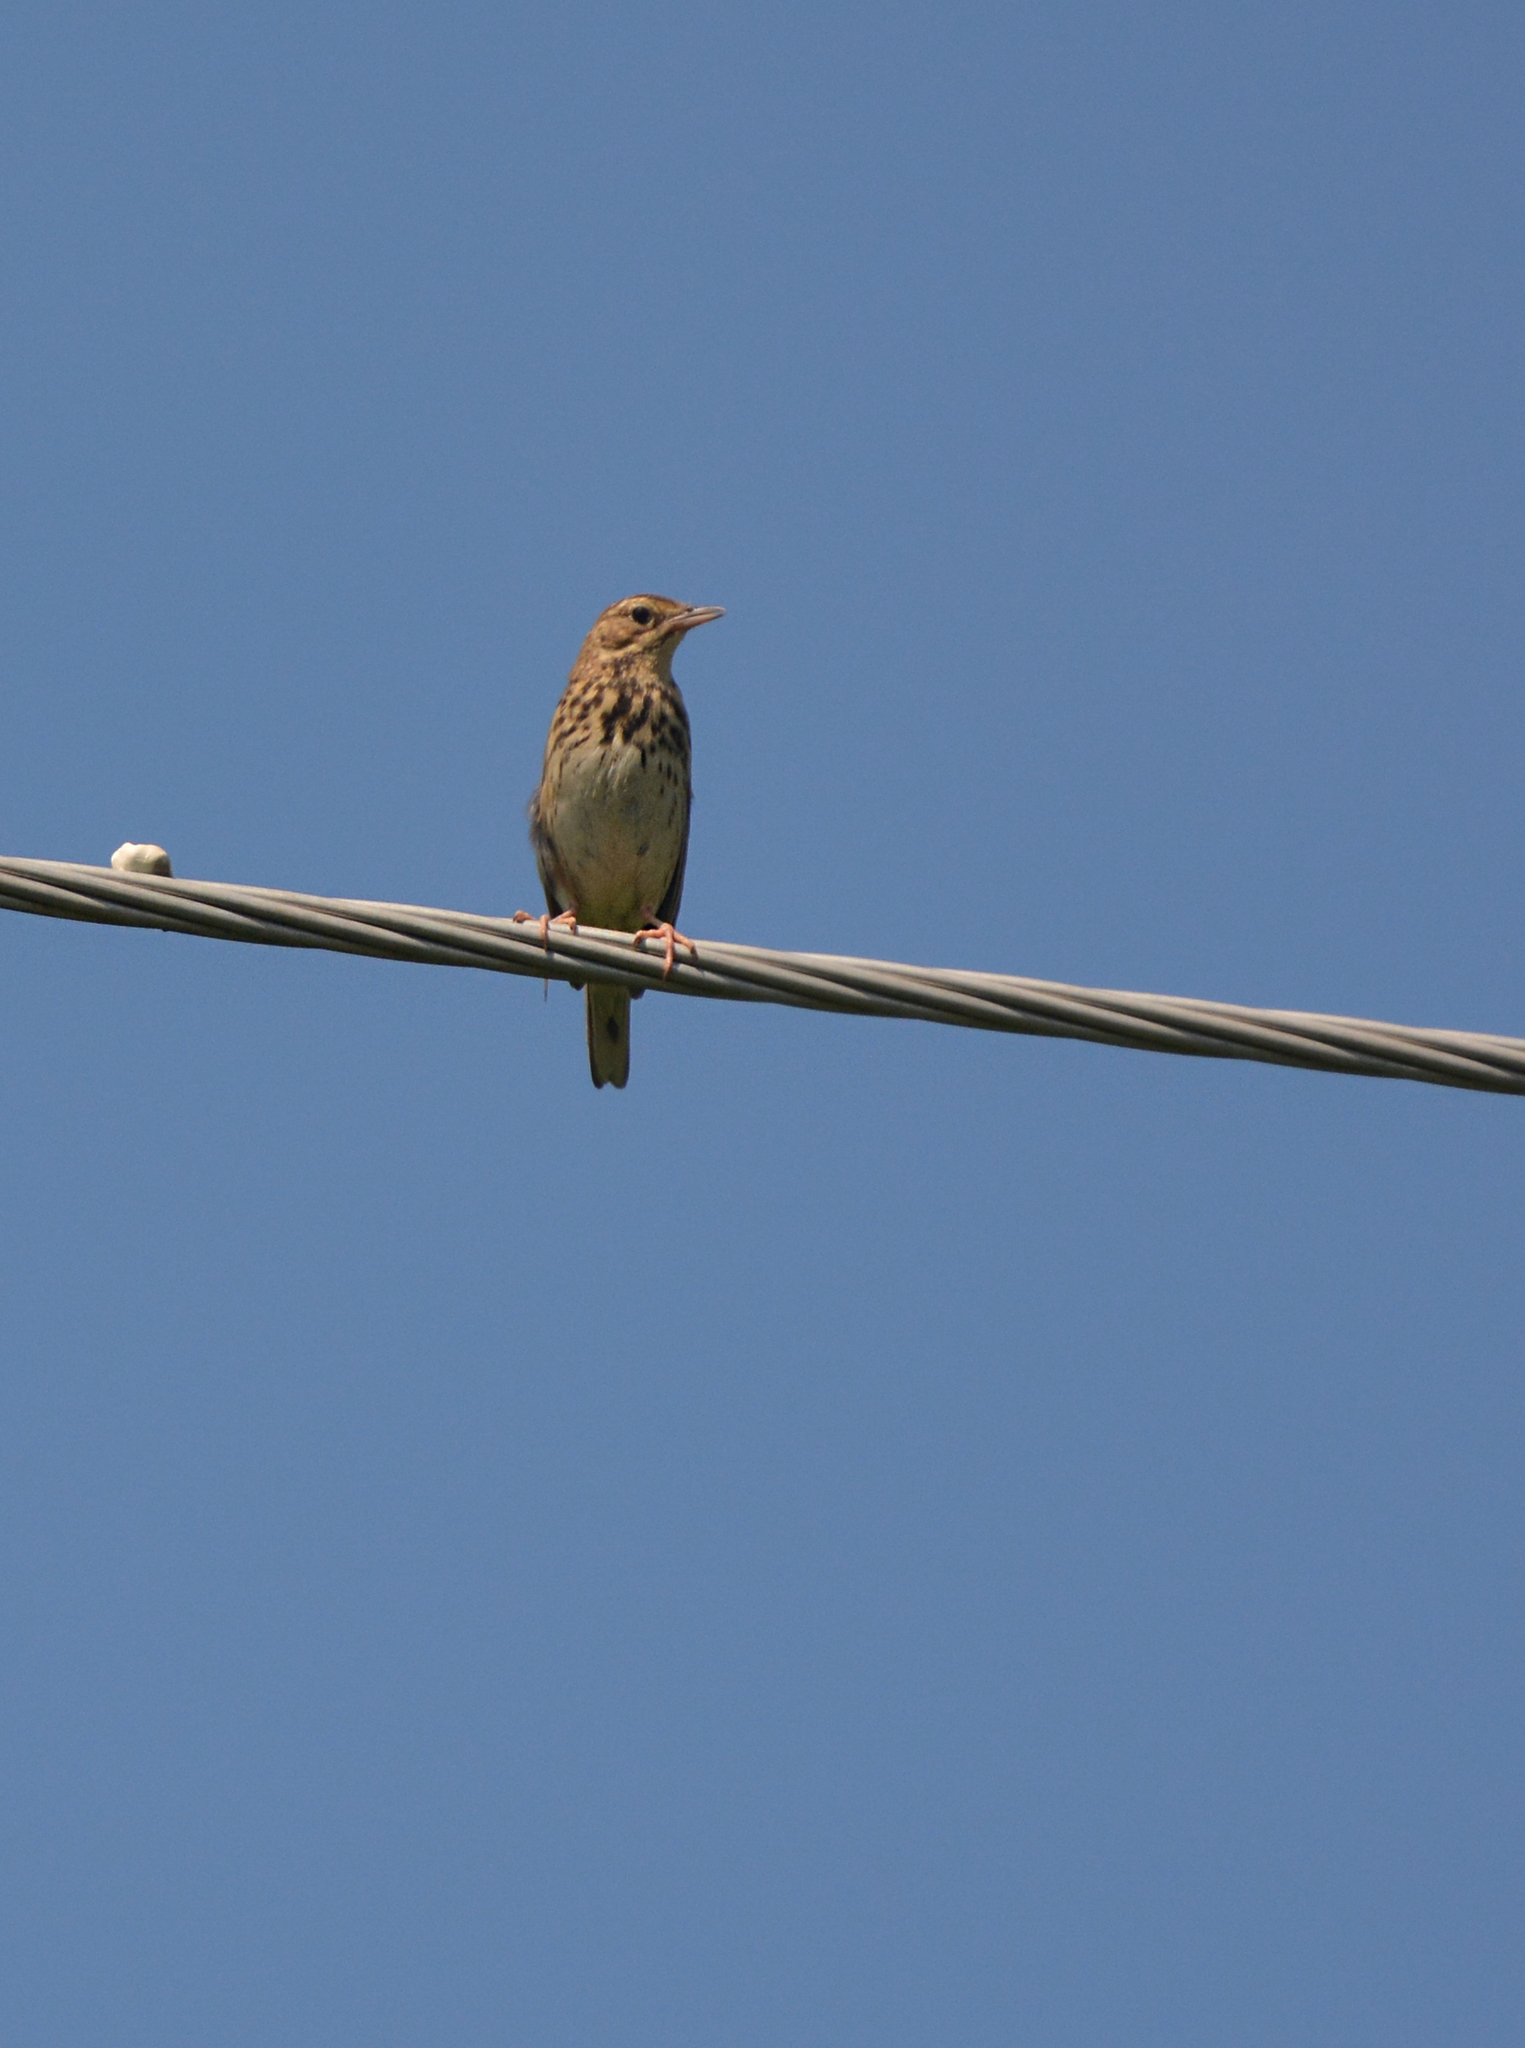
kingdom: Animalia
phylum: Chordata
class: Aves
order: Passeriformes
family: Motacillidae
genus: Anthus
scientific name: Anthus trivialis
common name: Tree pipit
